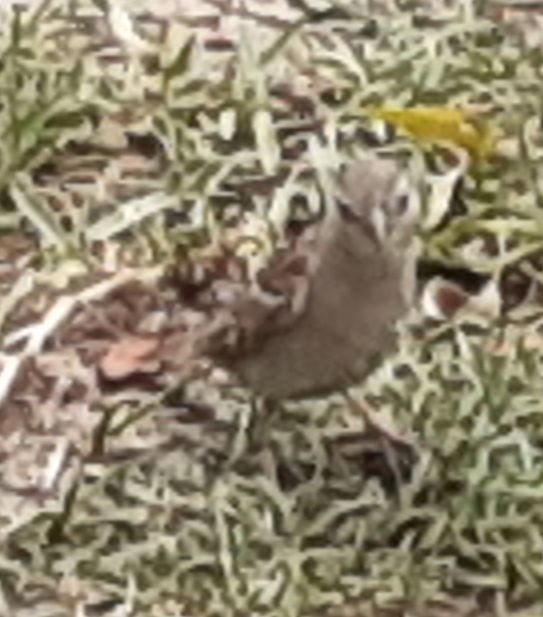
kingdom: Animalia
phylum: Chordata
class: Aves
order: Passeriformes
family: Passeridae
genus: Passer
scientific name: Passer domesticus
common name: House sparrow
